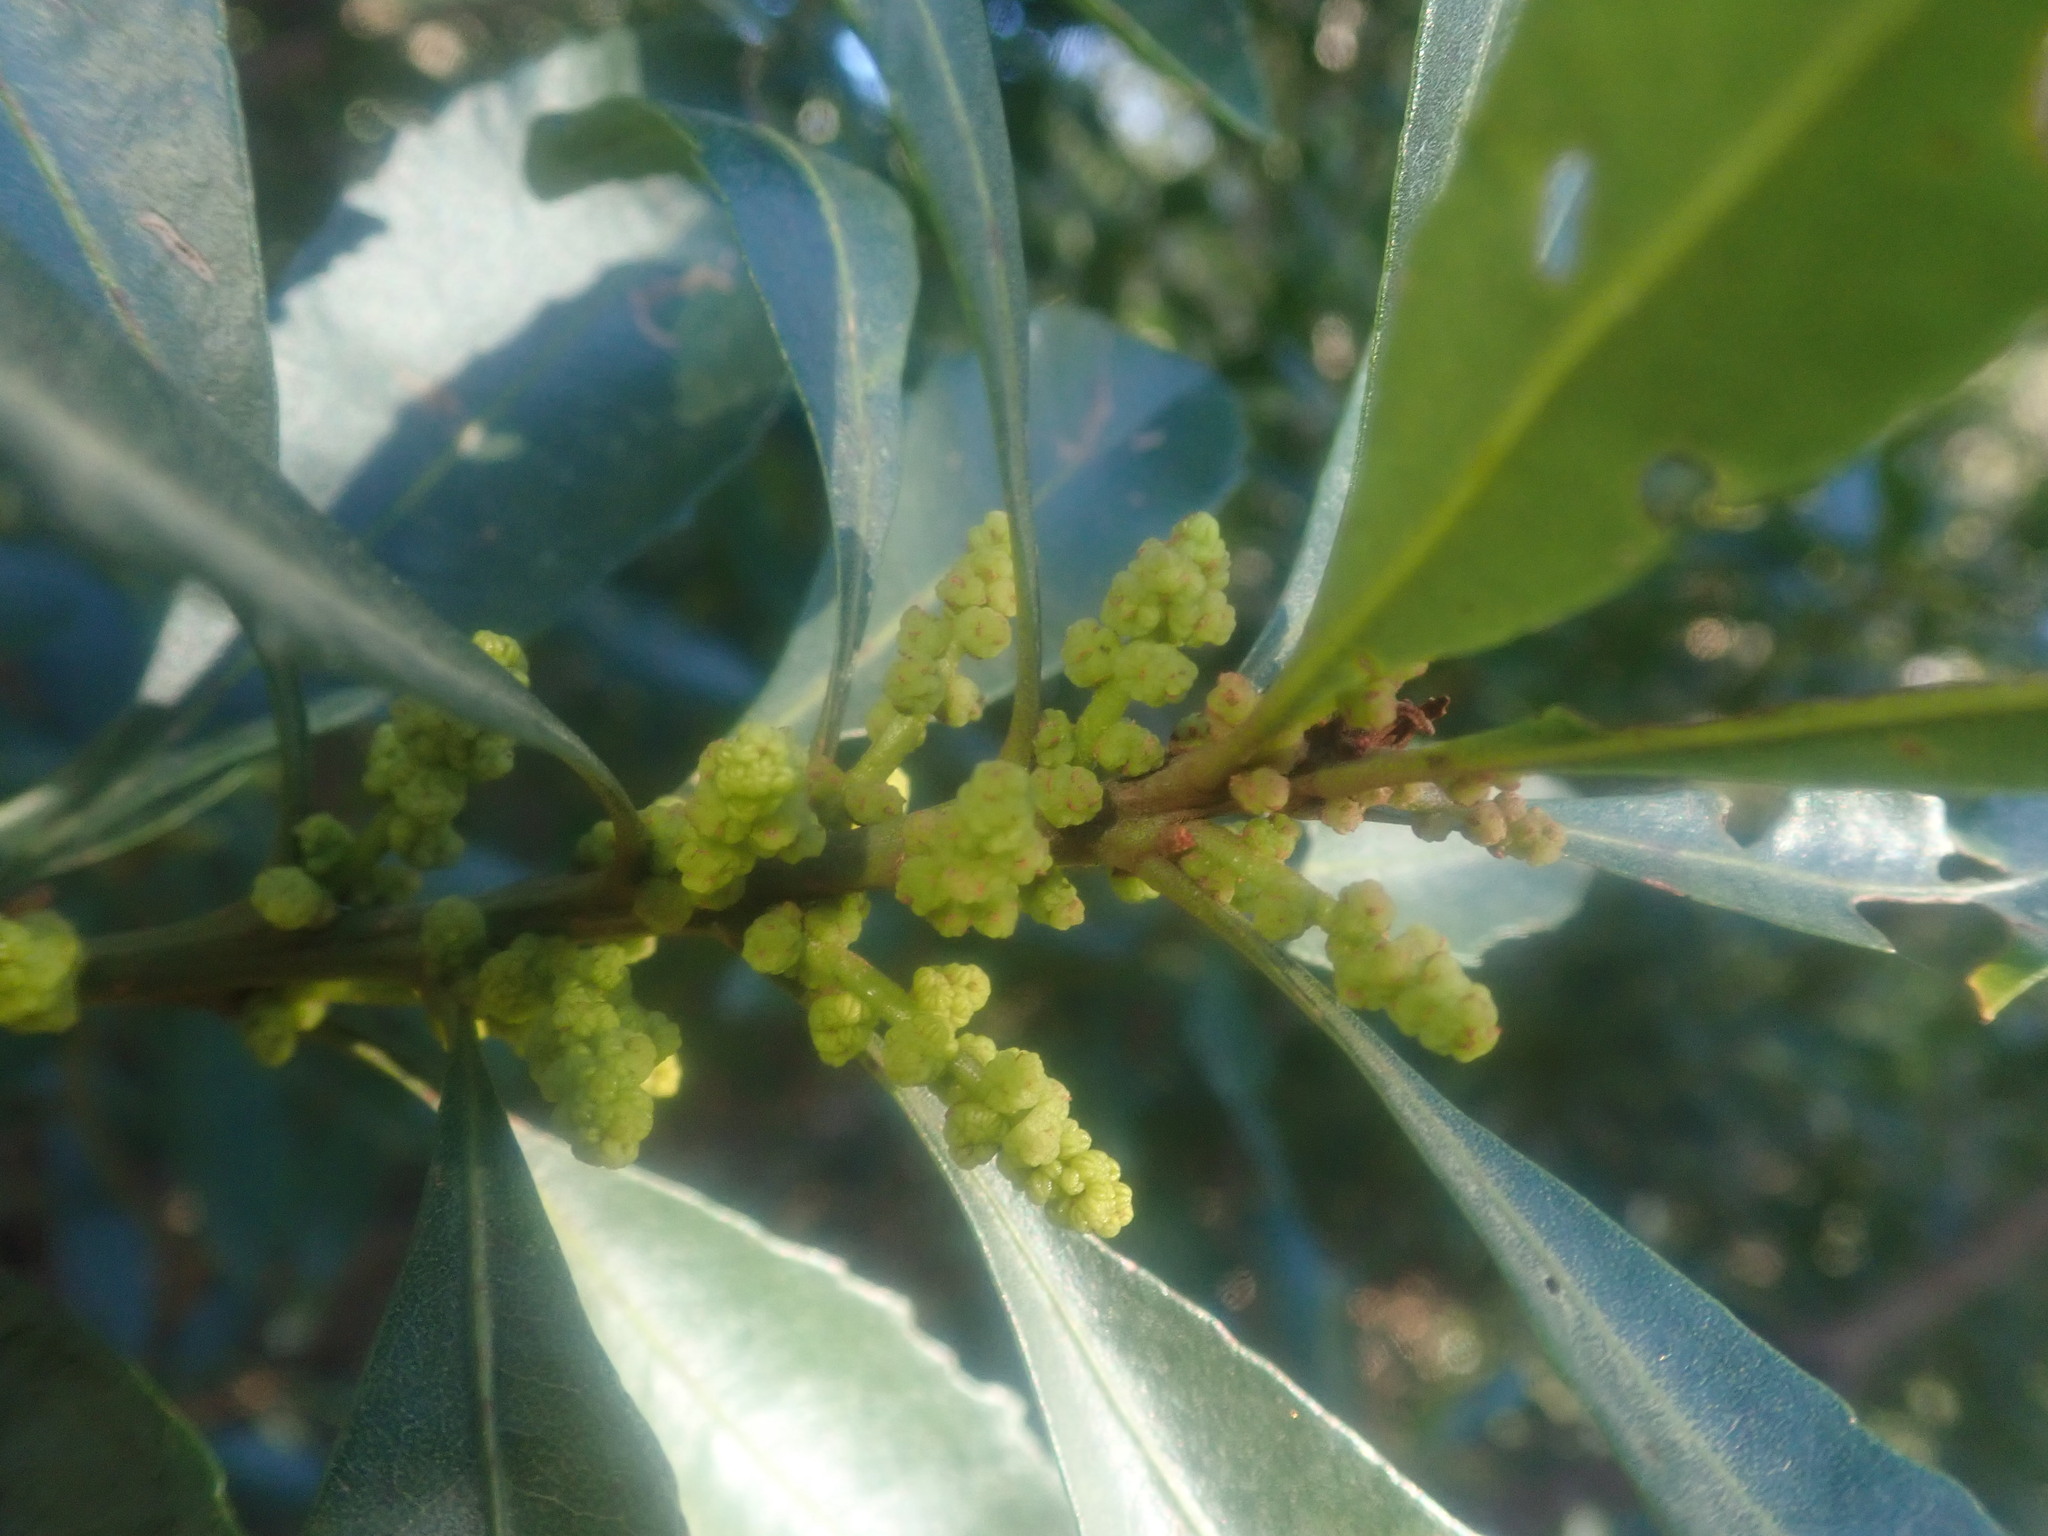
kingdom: Plantae
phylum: Tracheophyta
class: Magnoliopsida
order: Fagales
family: Myricaceae
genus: Morella
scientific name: Morella faya
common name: Firetree
